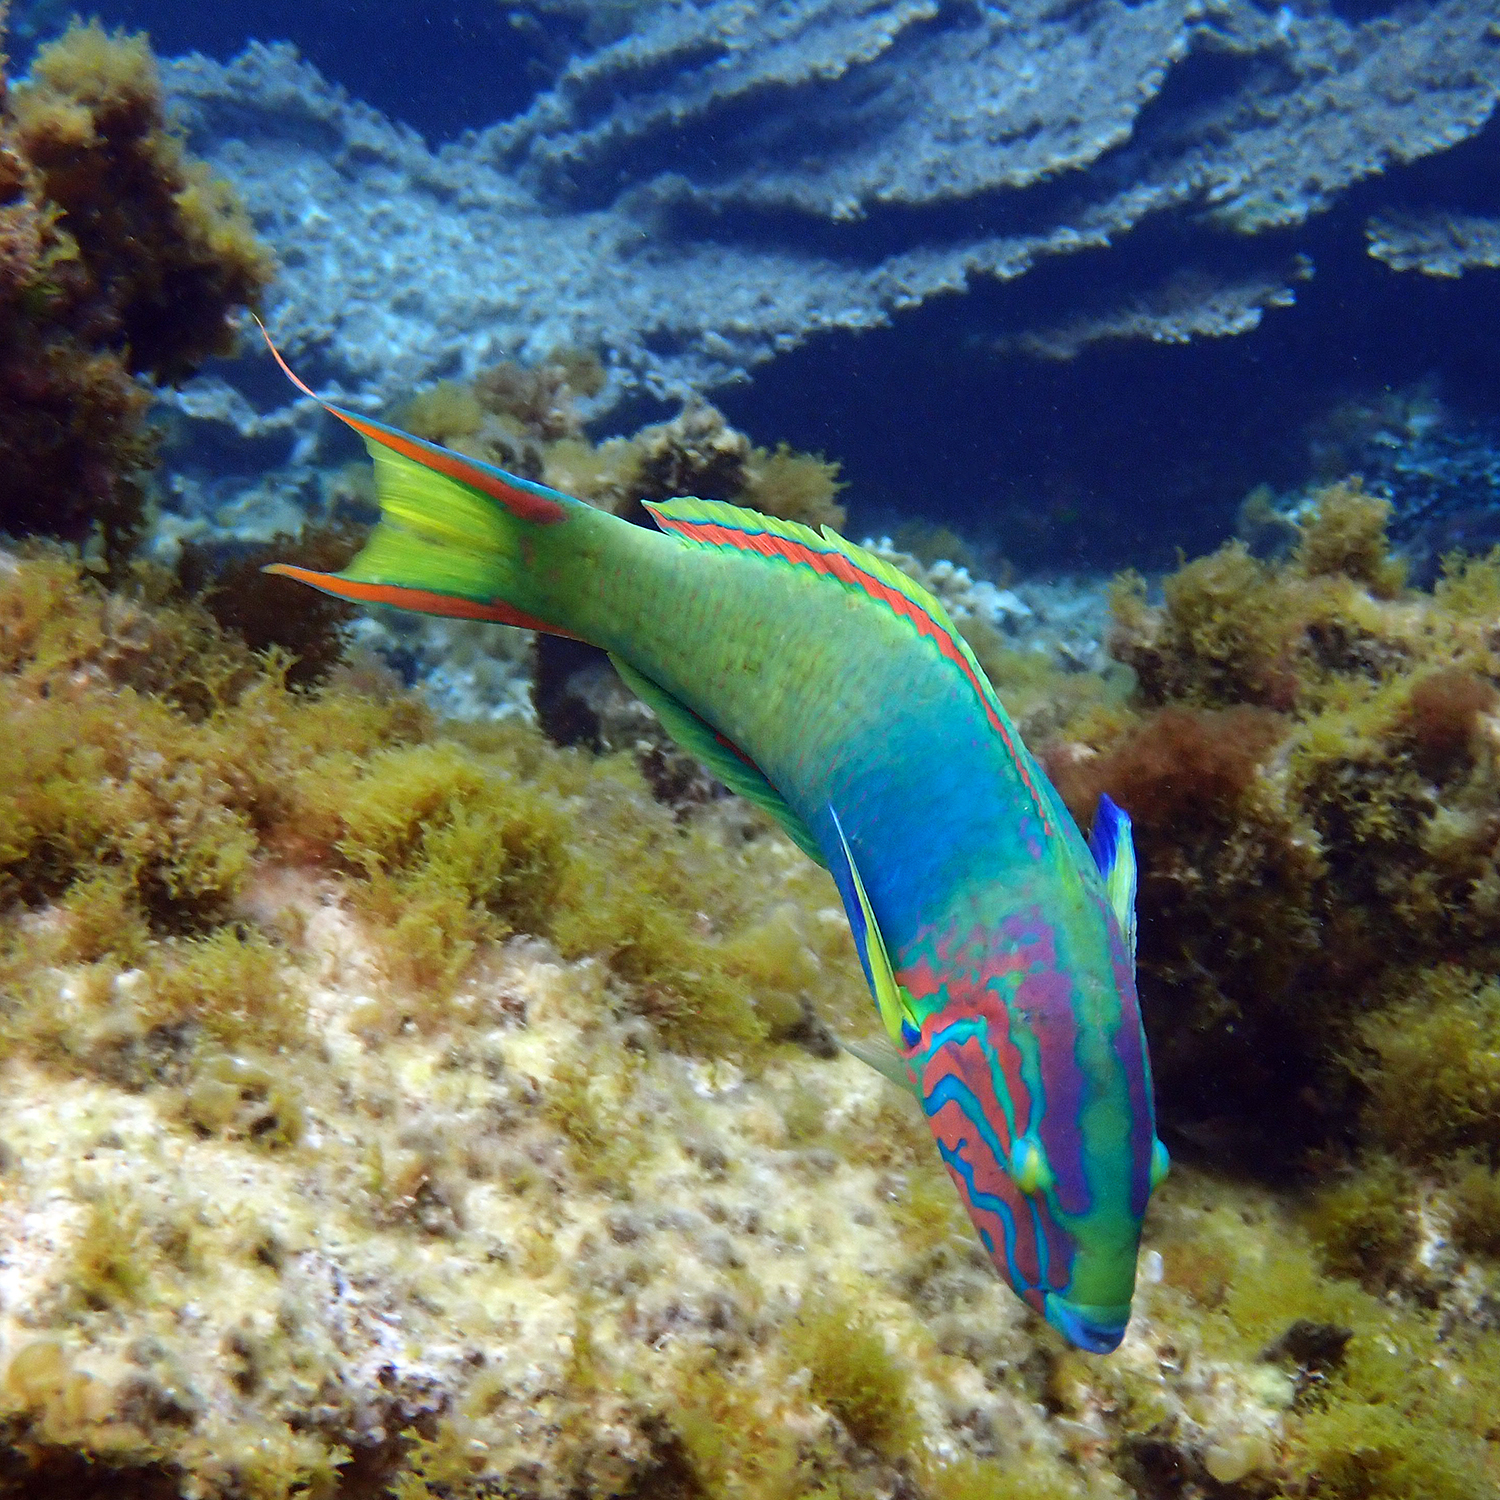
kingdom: Animalia
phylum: Chordata
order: Perciformes
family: Labridae
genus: Thalassoma
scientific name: Thalassoma lutescens
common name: Green moon wrasse
